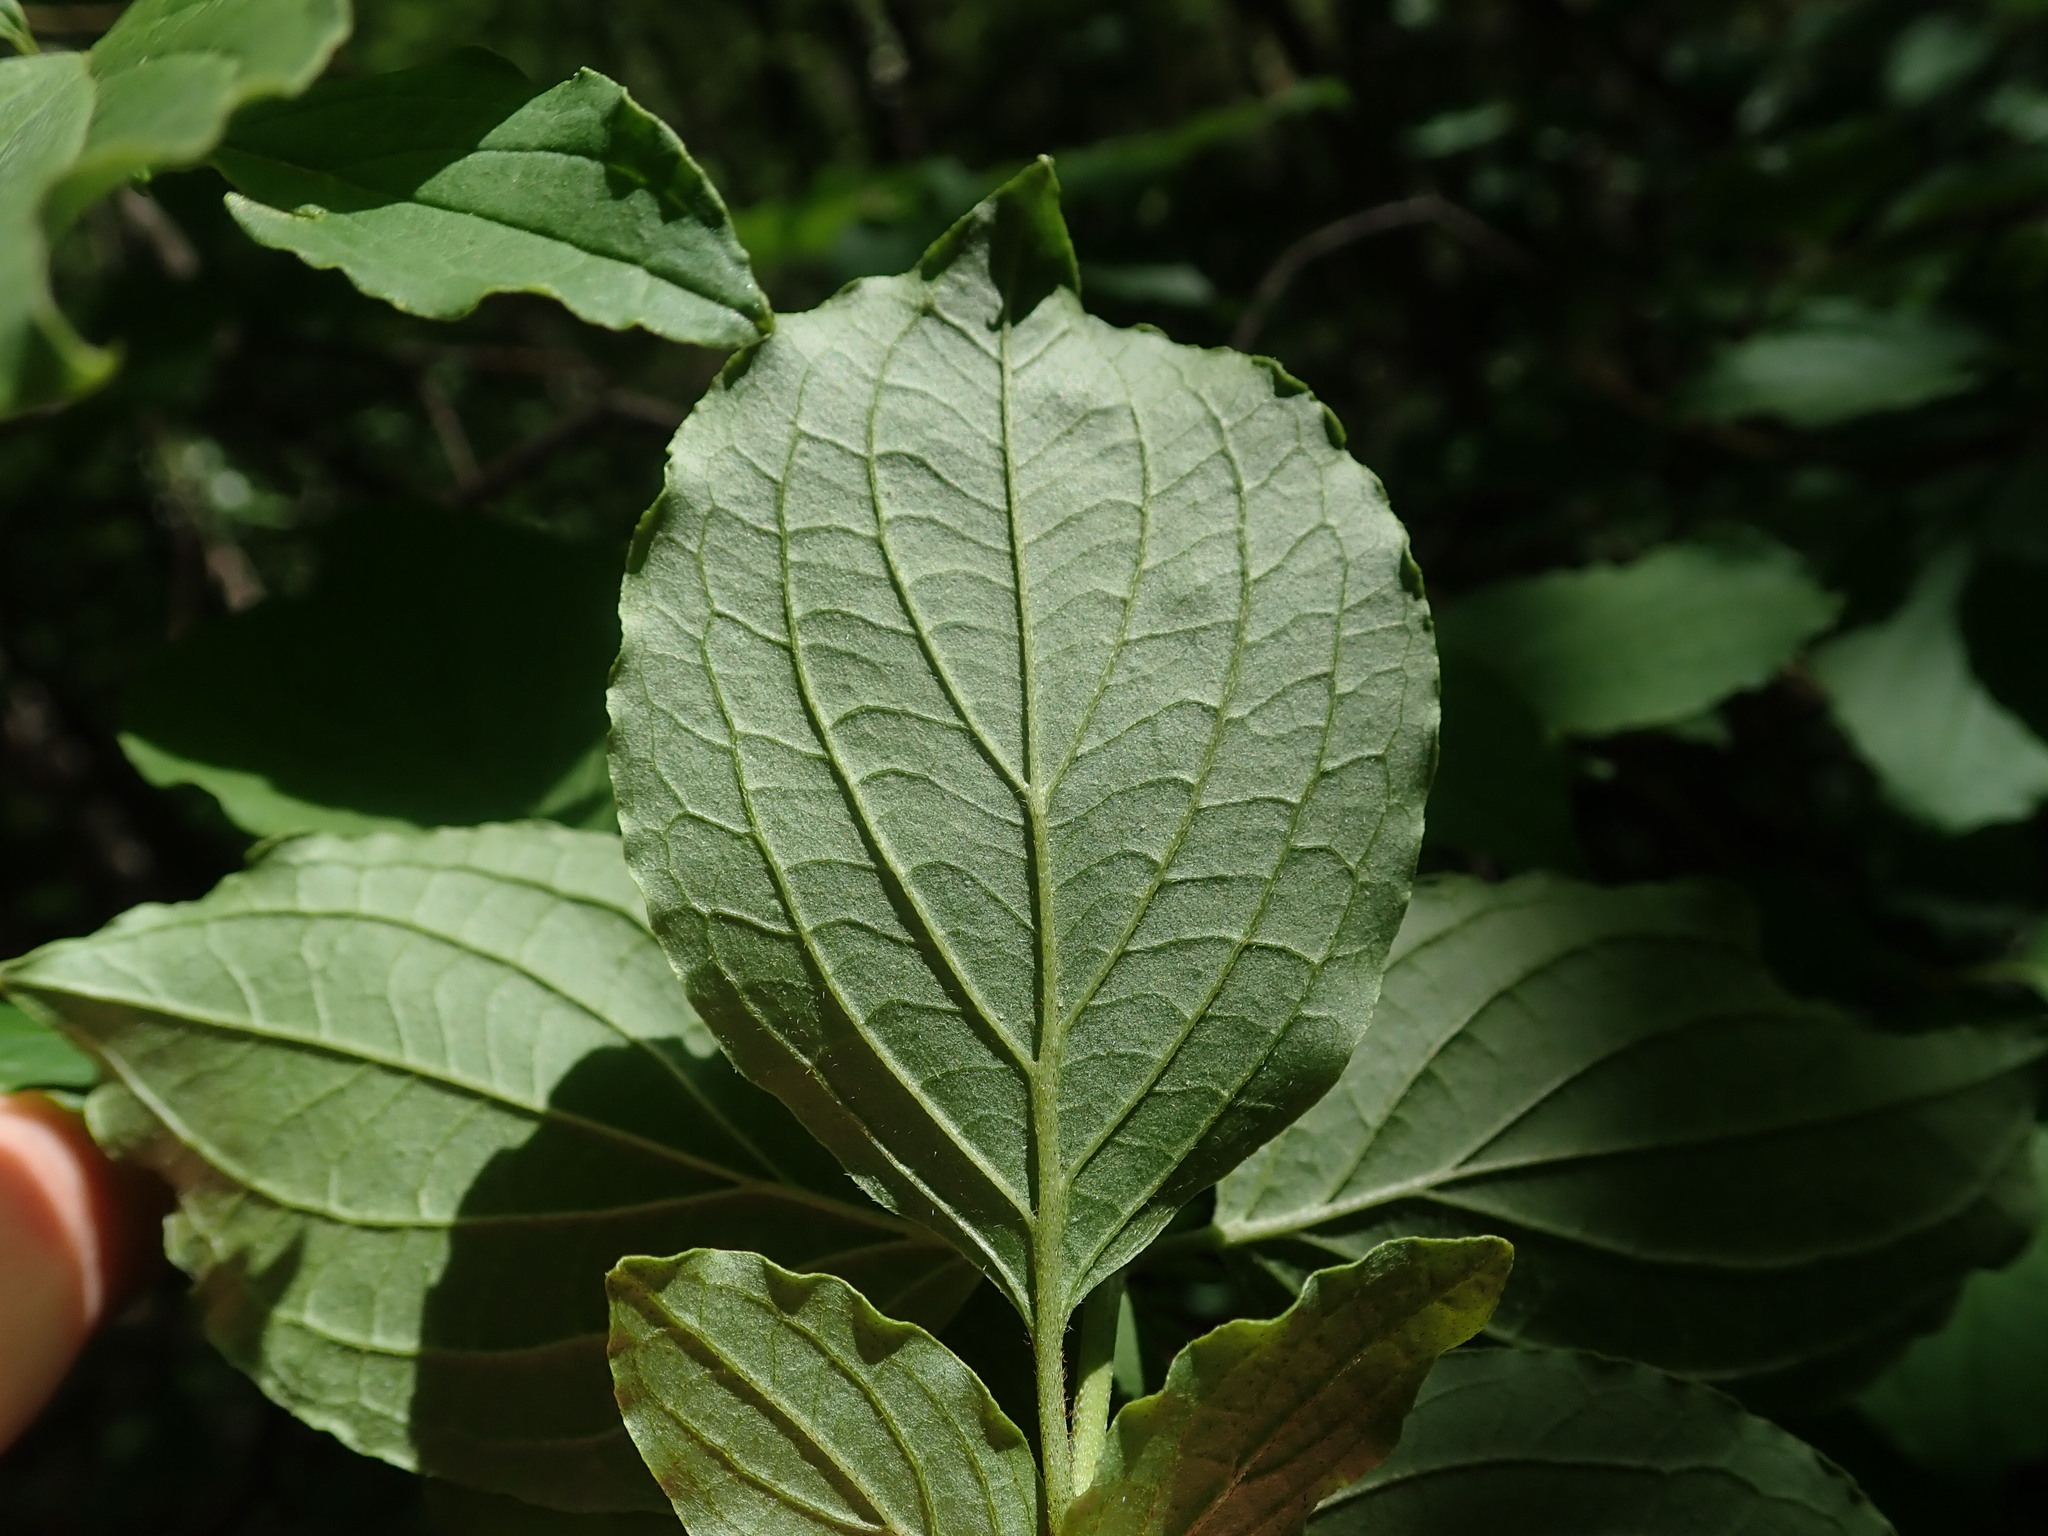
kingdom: Plantae
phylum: Tracheophyta
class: Magnoliopsida
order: Cornales
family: Cornaceae
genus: Cornus
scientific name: Cornus sanguinea
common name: Dogwood
